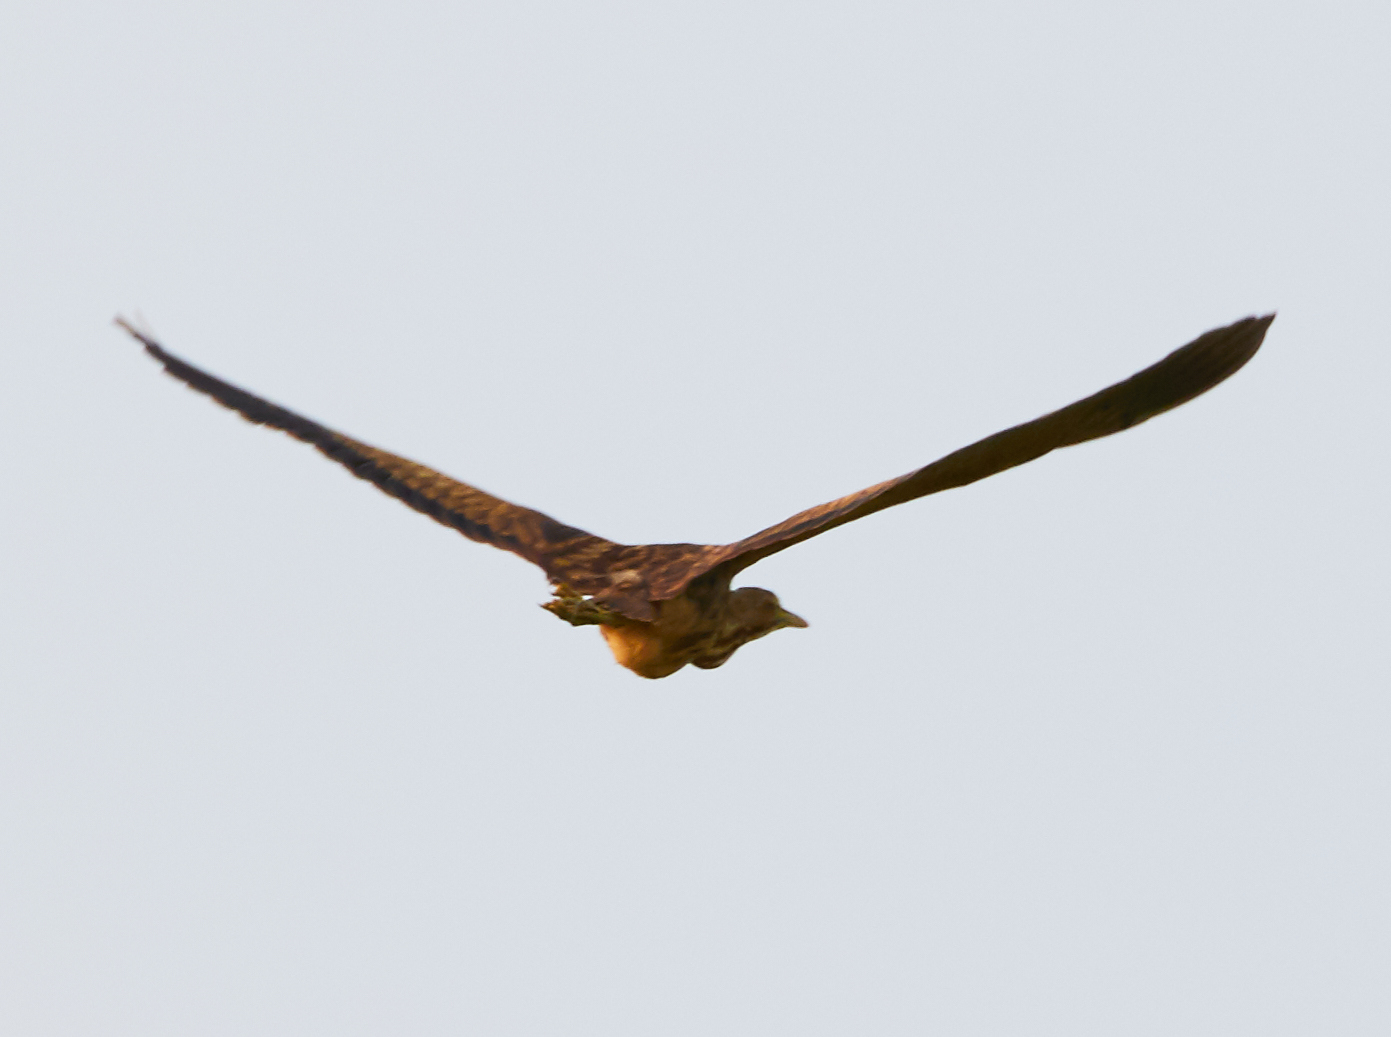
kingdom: Animalia
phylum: Chordata
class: Aves
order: Pelecaniformes
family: Ardeidae
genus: Botaurus
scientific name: Botaurus lentiginosus
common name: American bittern
